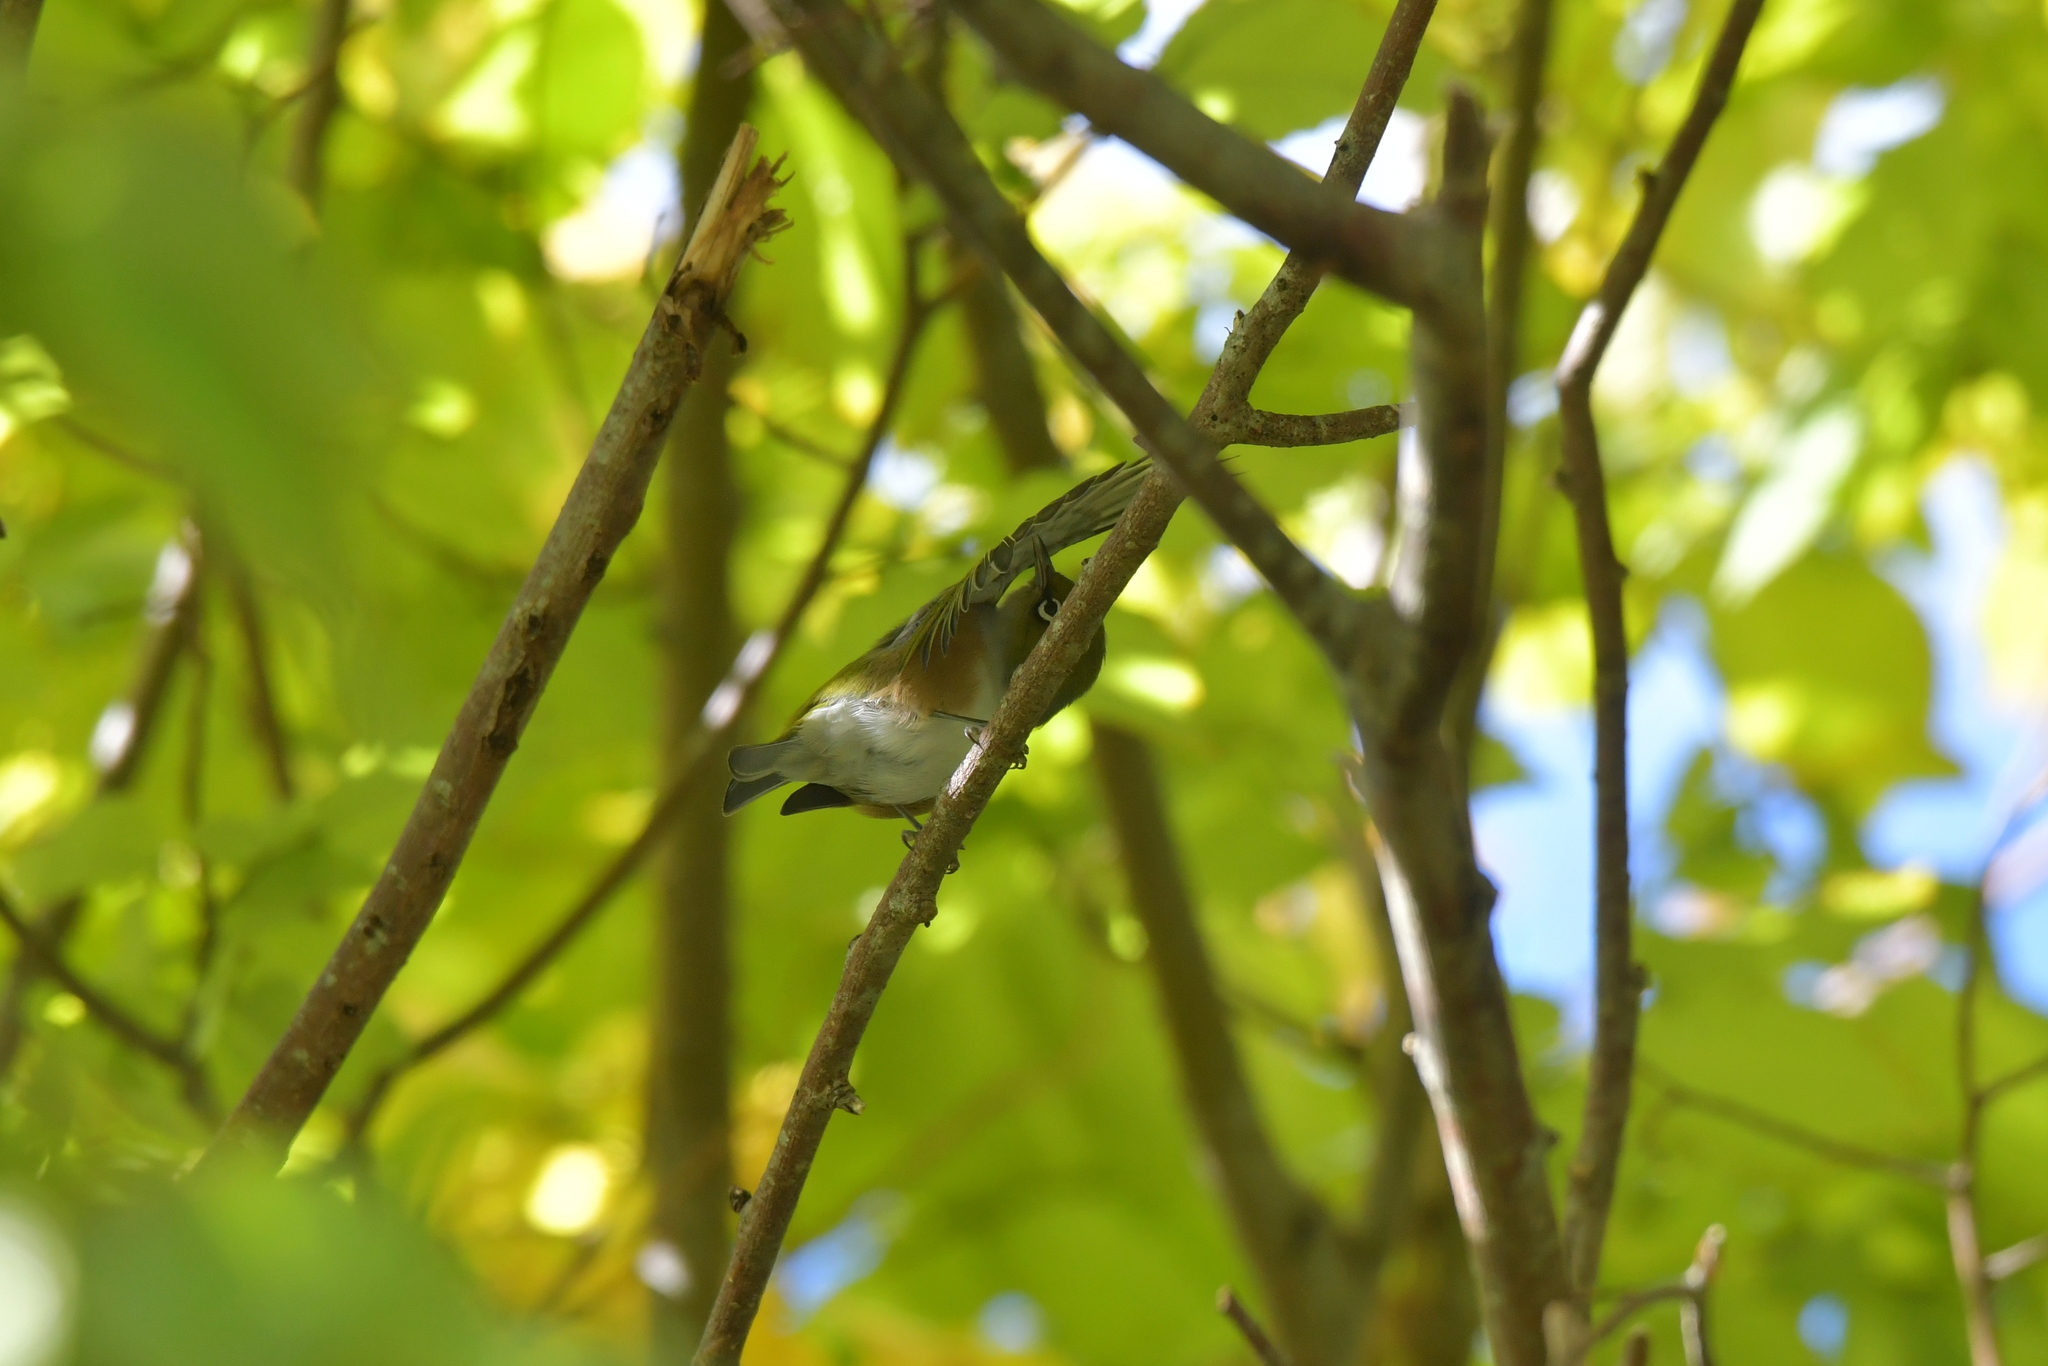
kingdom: Animalia
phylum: Chordata
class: Aves
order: Passeriformes
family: Zosteropidae
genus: Zosterops
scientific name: Zosterops lateralis
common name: Silvereye
